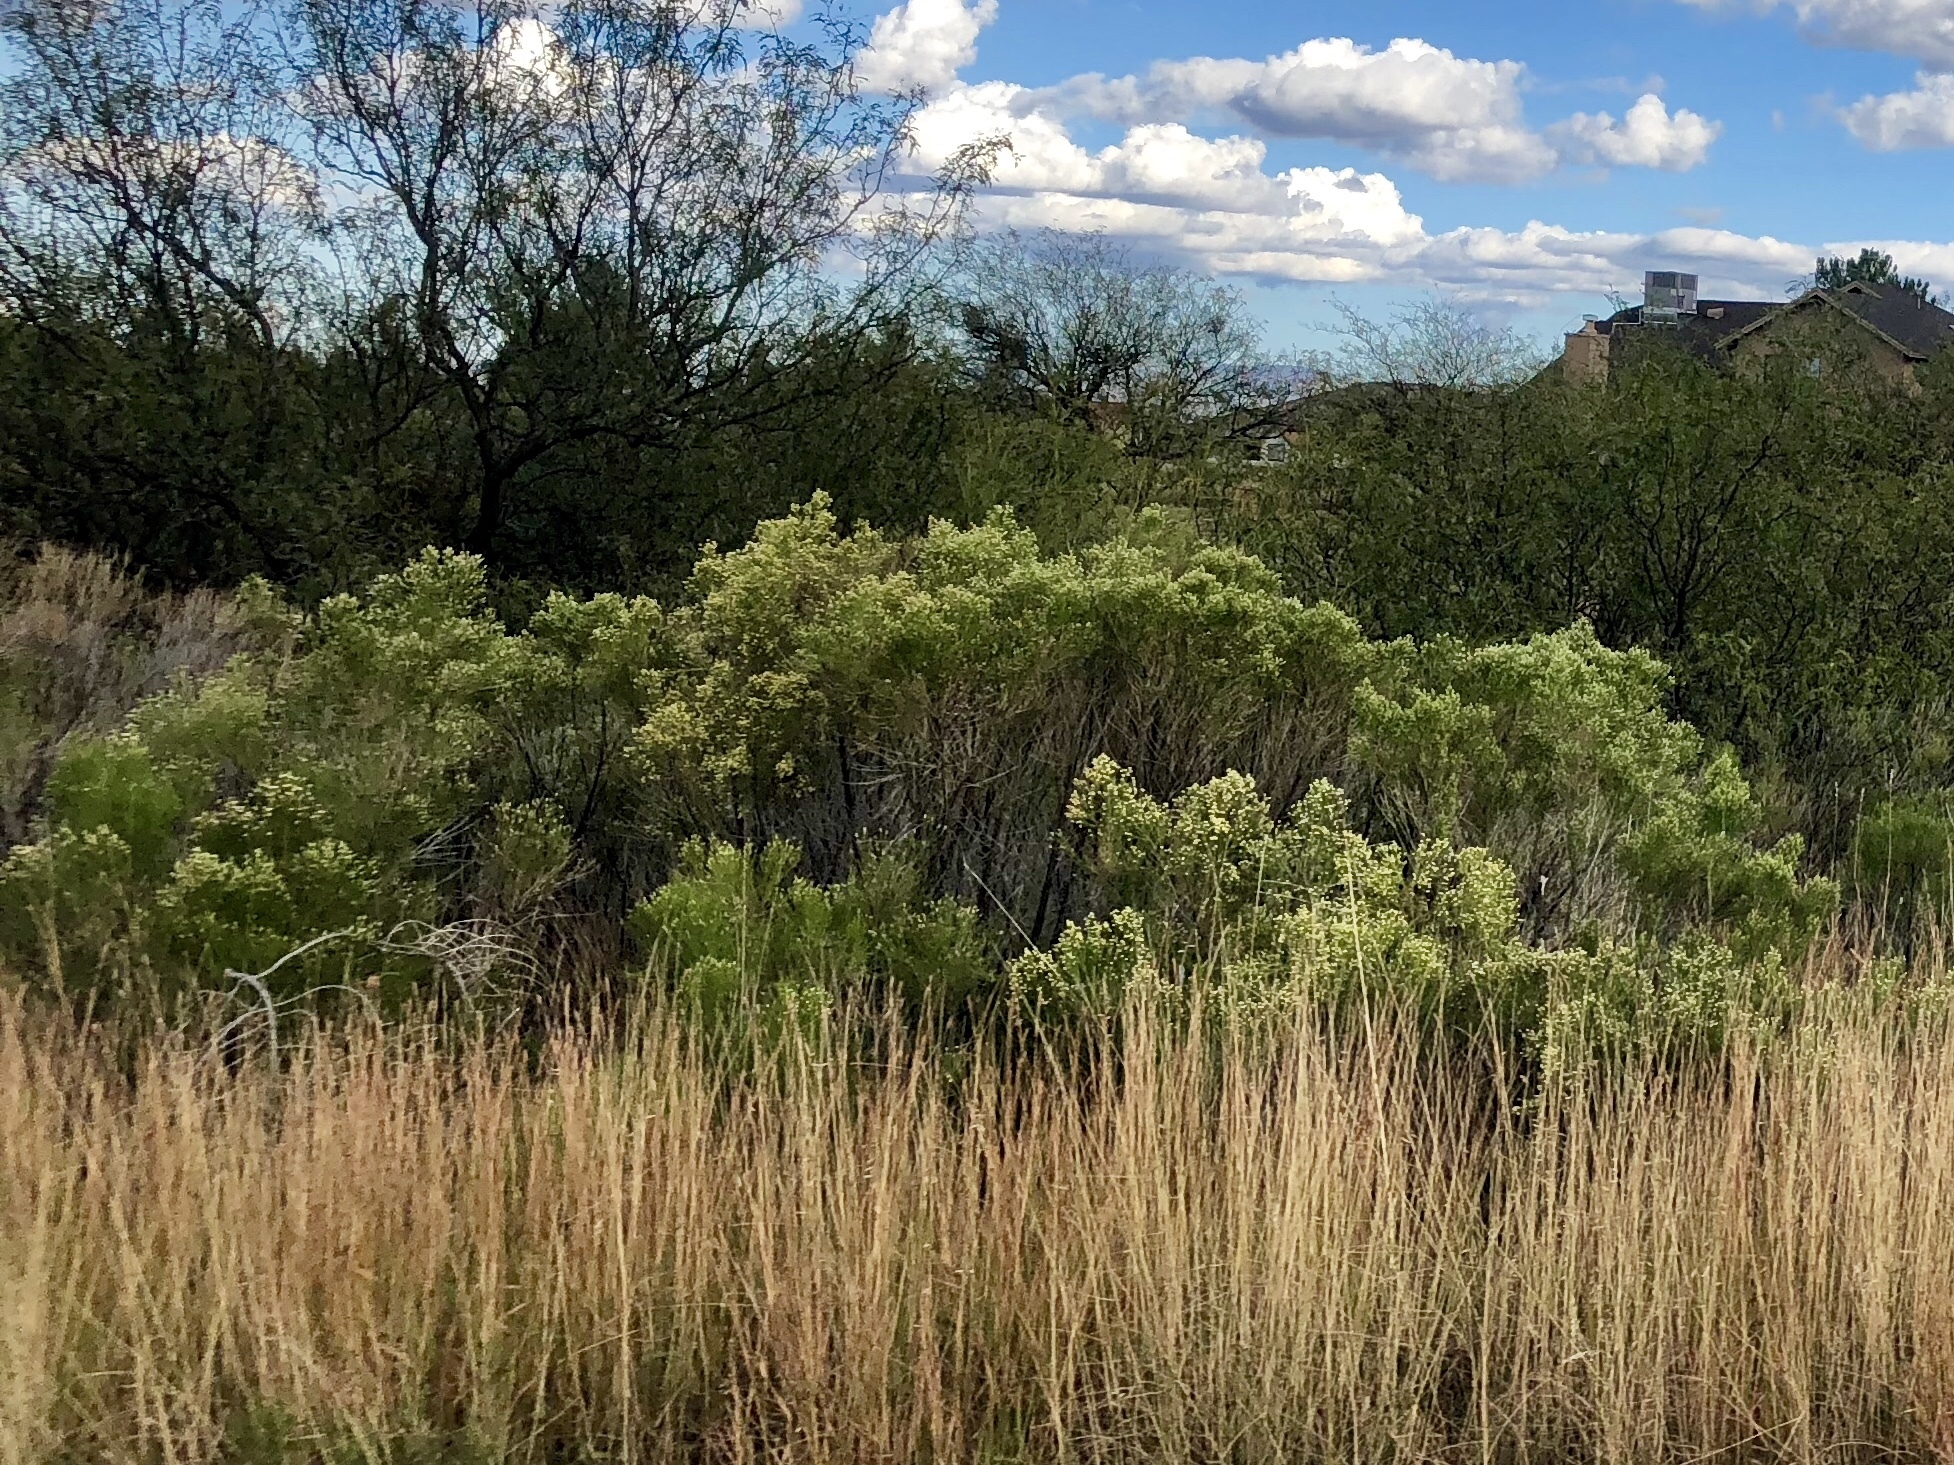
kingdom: Plantae
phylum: Tracheophyta
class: Magnoliopsida
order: Asterales
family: Asteraceae
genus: Baccharis
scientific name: Baccharis sarothroides
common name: Desert-broom
